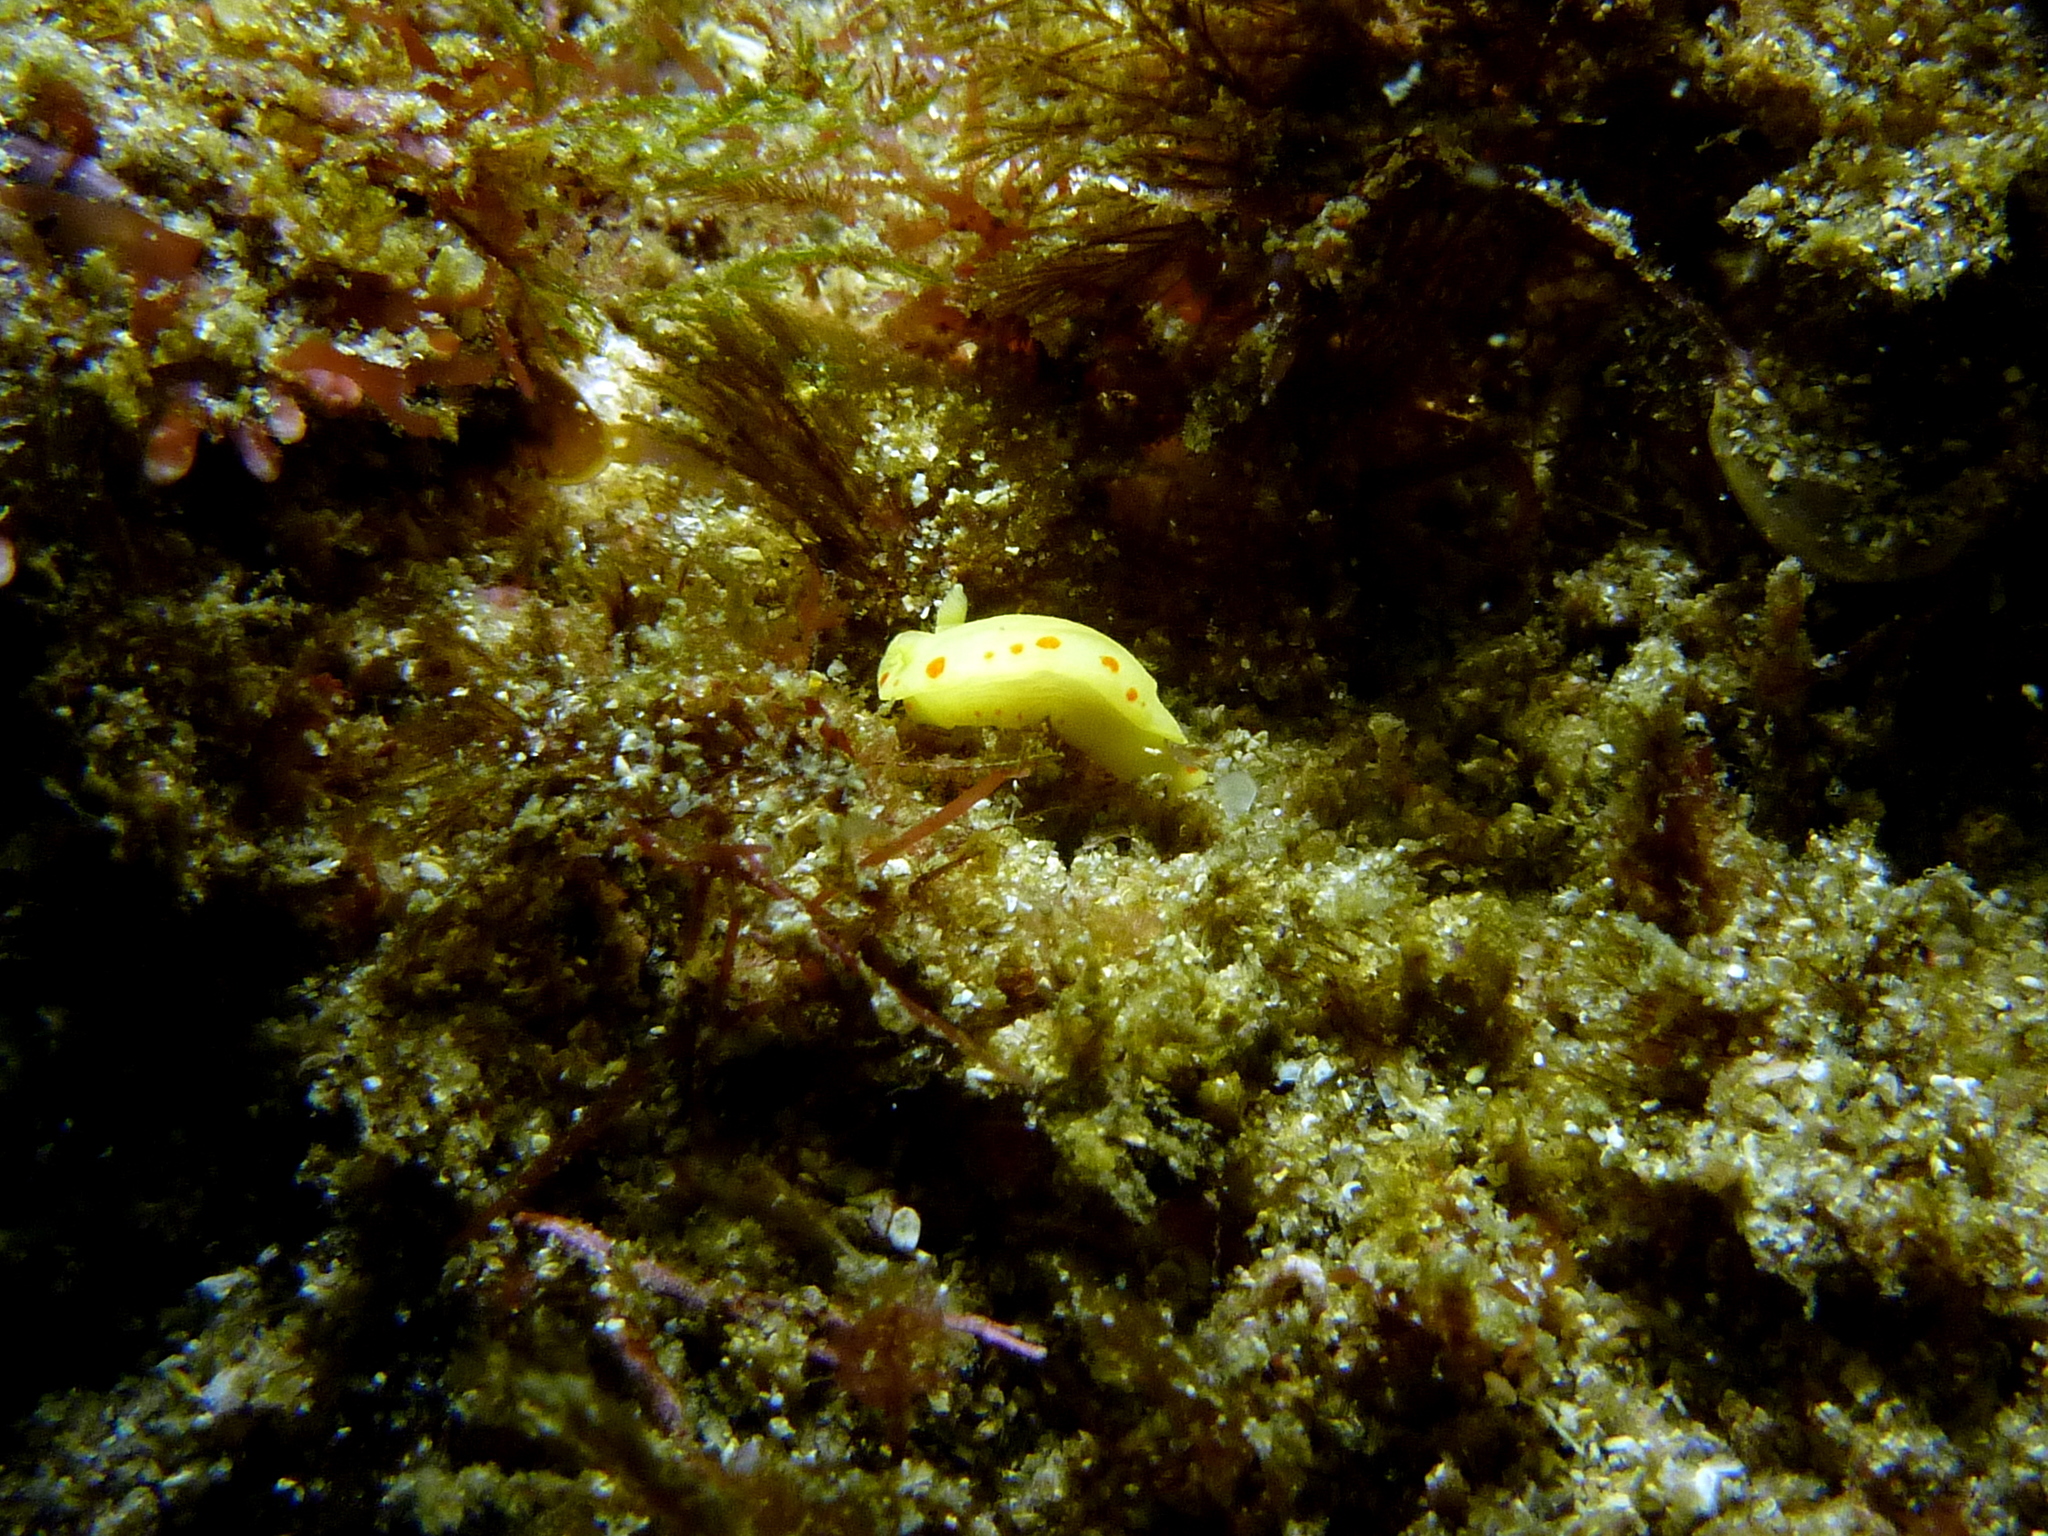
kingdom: Animalia
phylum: Mollusca
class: Gastropoda
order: Nudibranchia
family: Chromodorididae
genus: Diversidoris
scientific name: Diversidoris sulphurea
